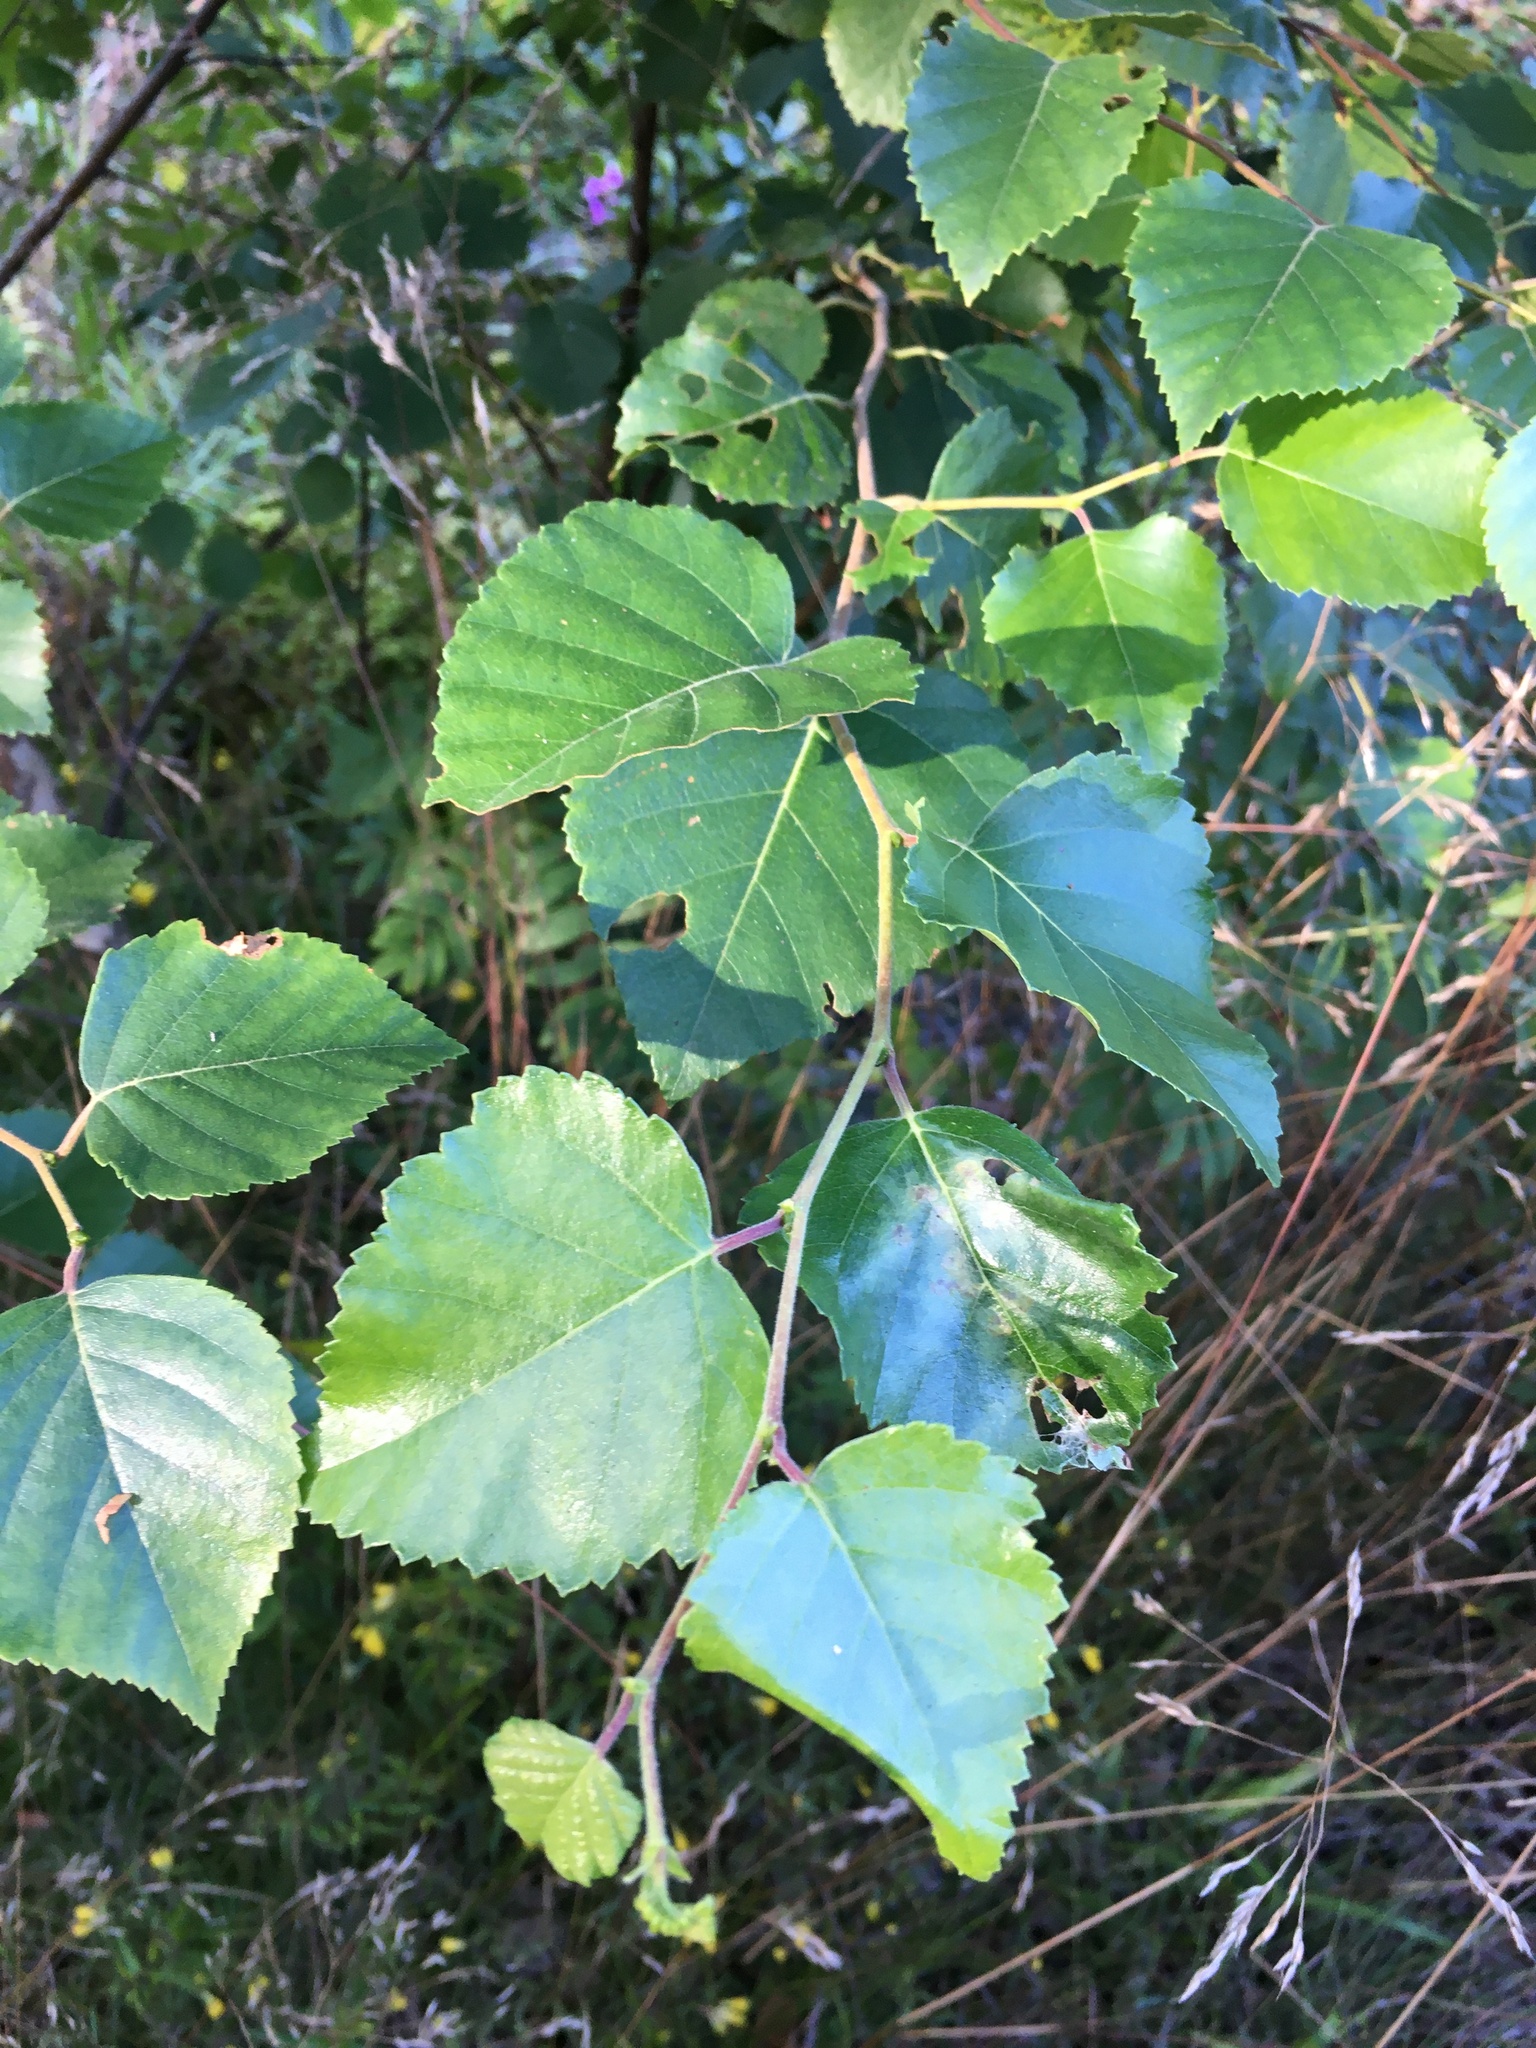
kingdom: Plantae
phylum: Tracheophyta
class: Magnoliopsida
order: Fagales
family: Betulaceae
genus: Betula
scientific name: Betula pubescens
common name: Downy birch
